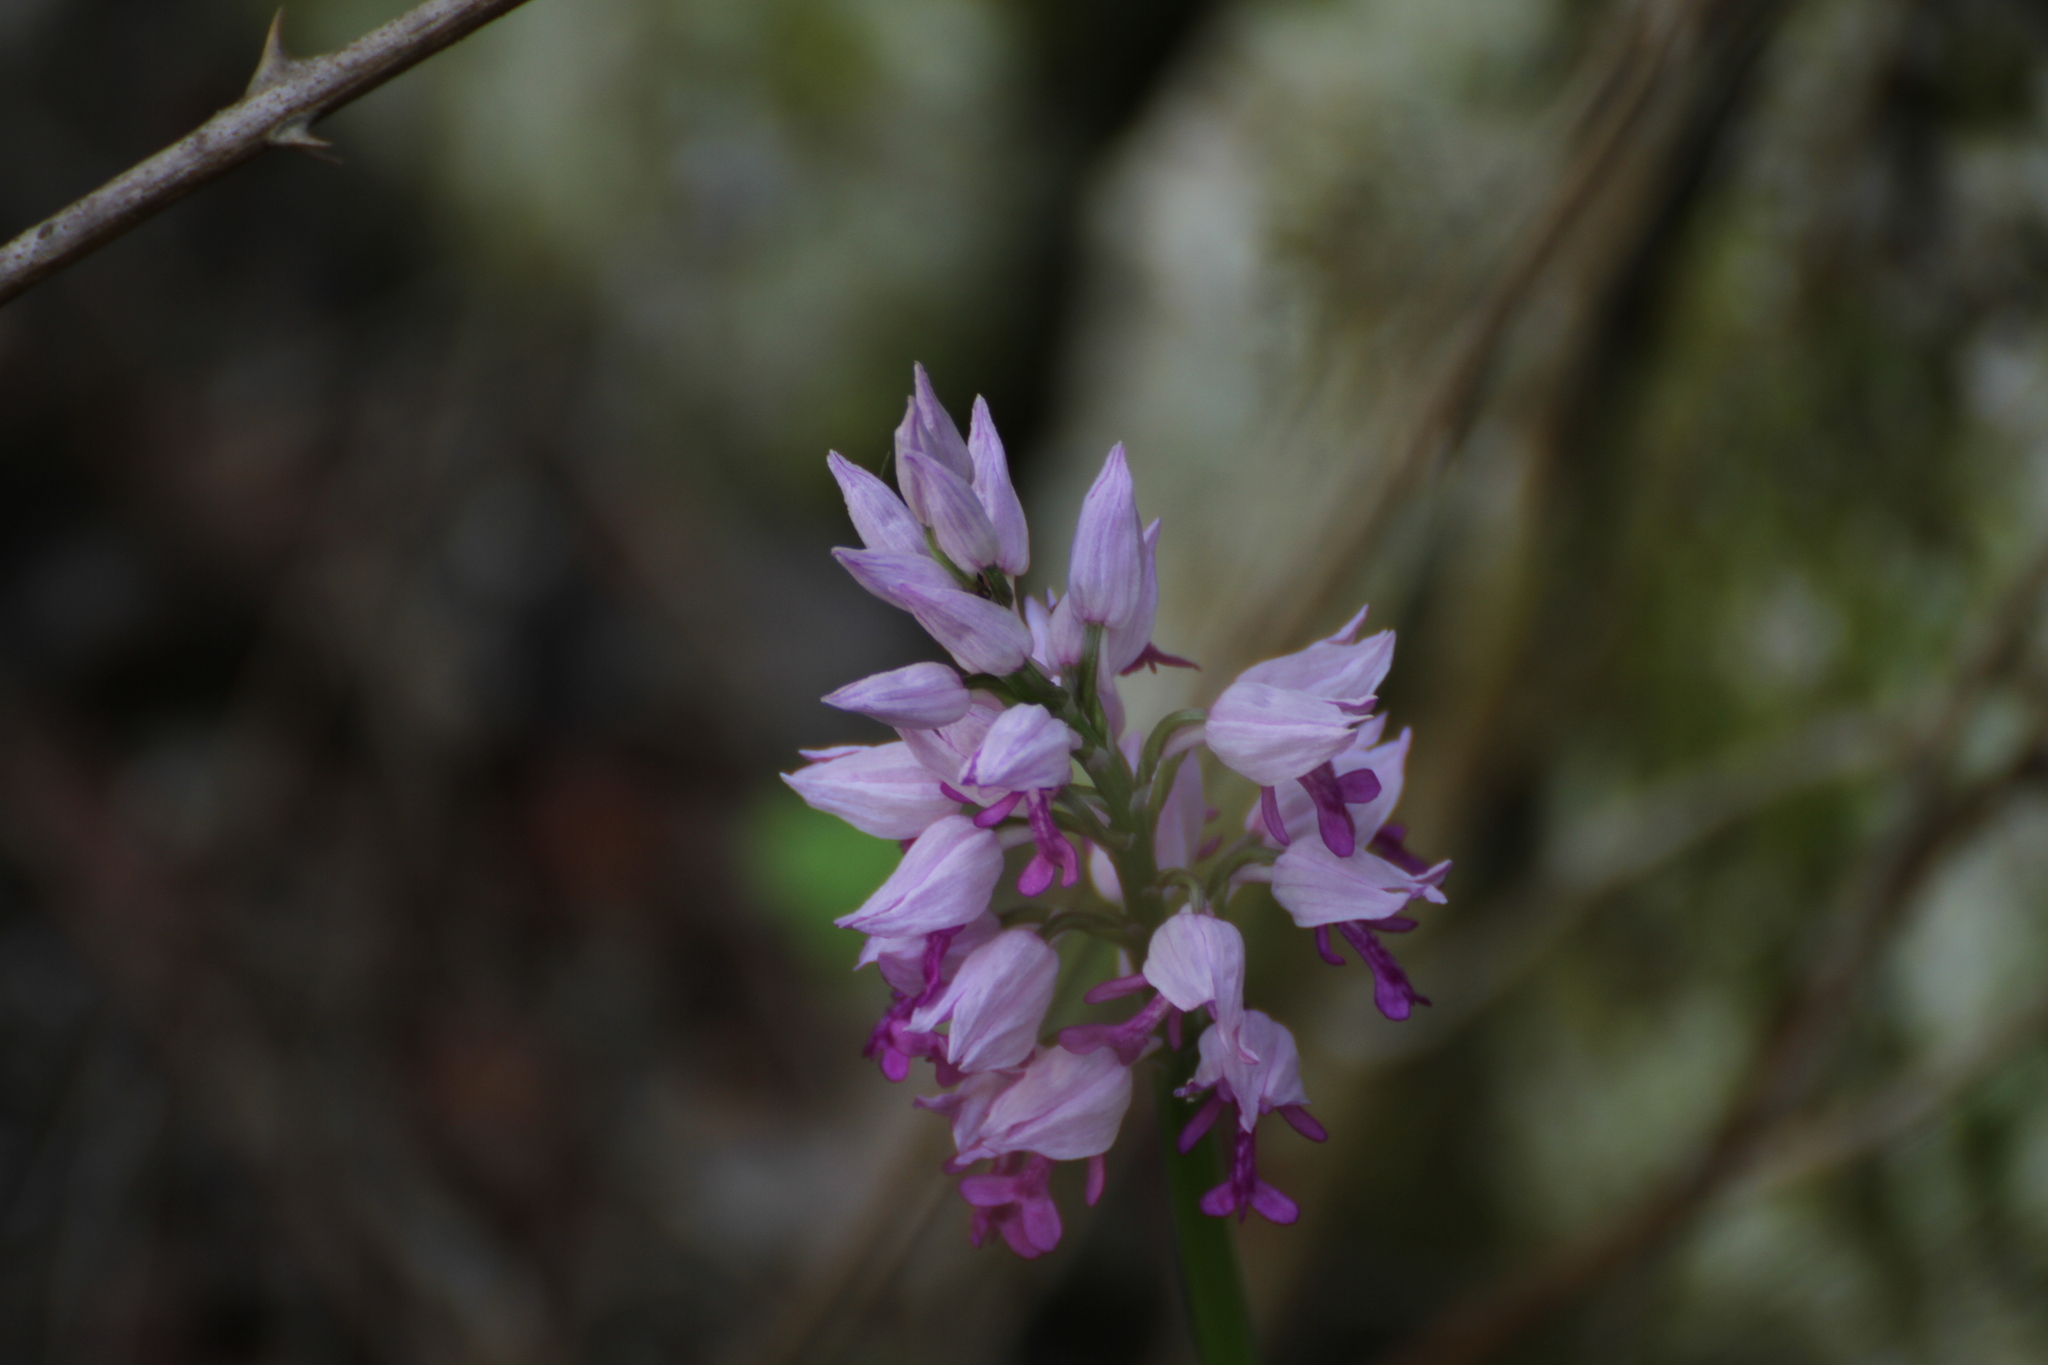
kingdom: Plantae
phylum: Tracheophyta
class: Liliopsida
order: Asparagales
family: Orchidaceae
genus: Orchis
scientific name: Orchis militaris
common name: Military orchid
